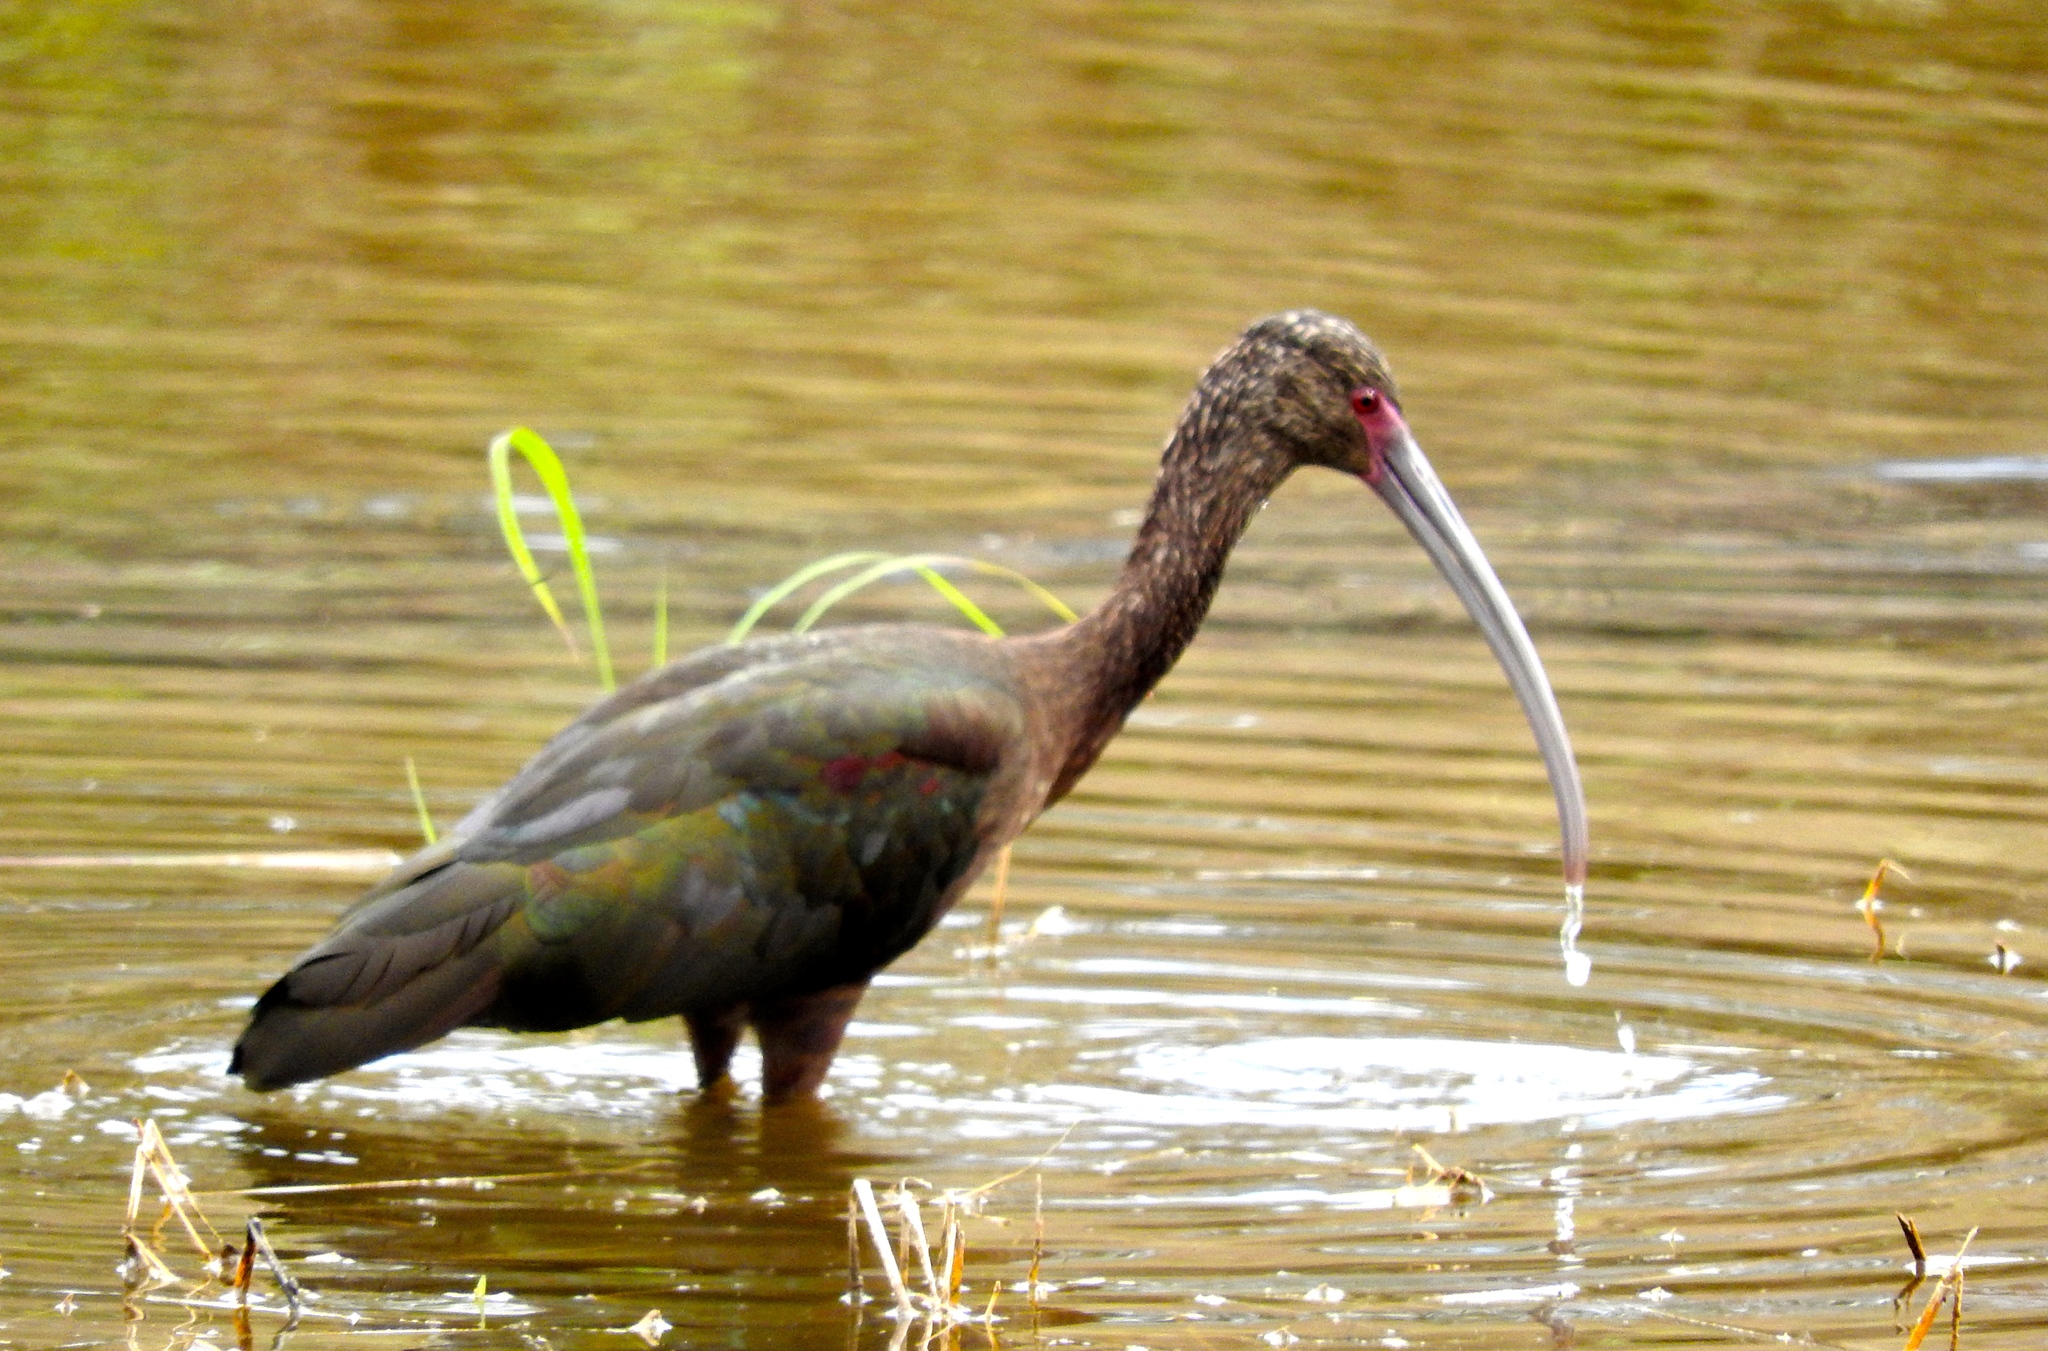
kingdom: Animalia
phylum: Chordata
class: Aves
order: Pelecaniformes
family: Threskiornithidae
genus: Plegadis
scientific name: Plegadis chihi
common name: White-faced ibis
